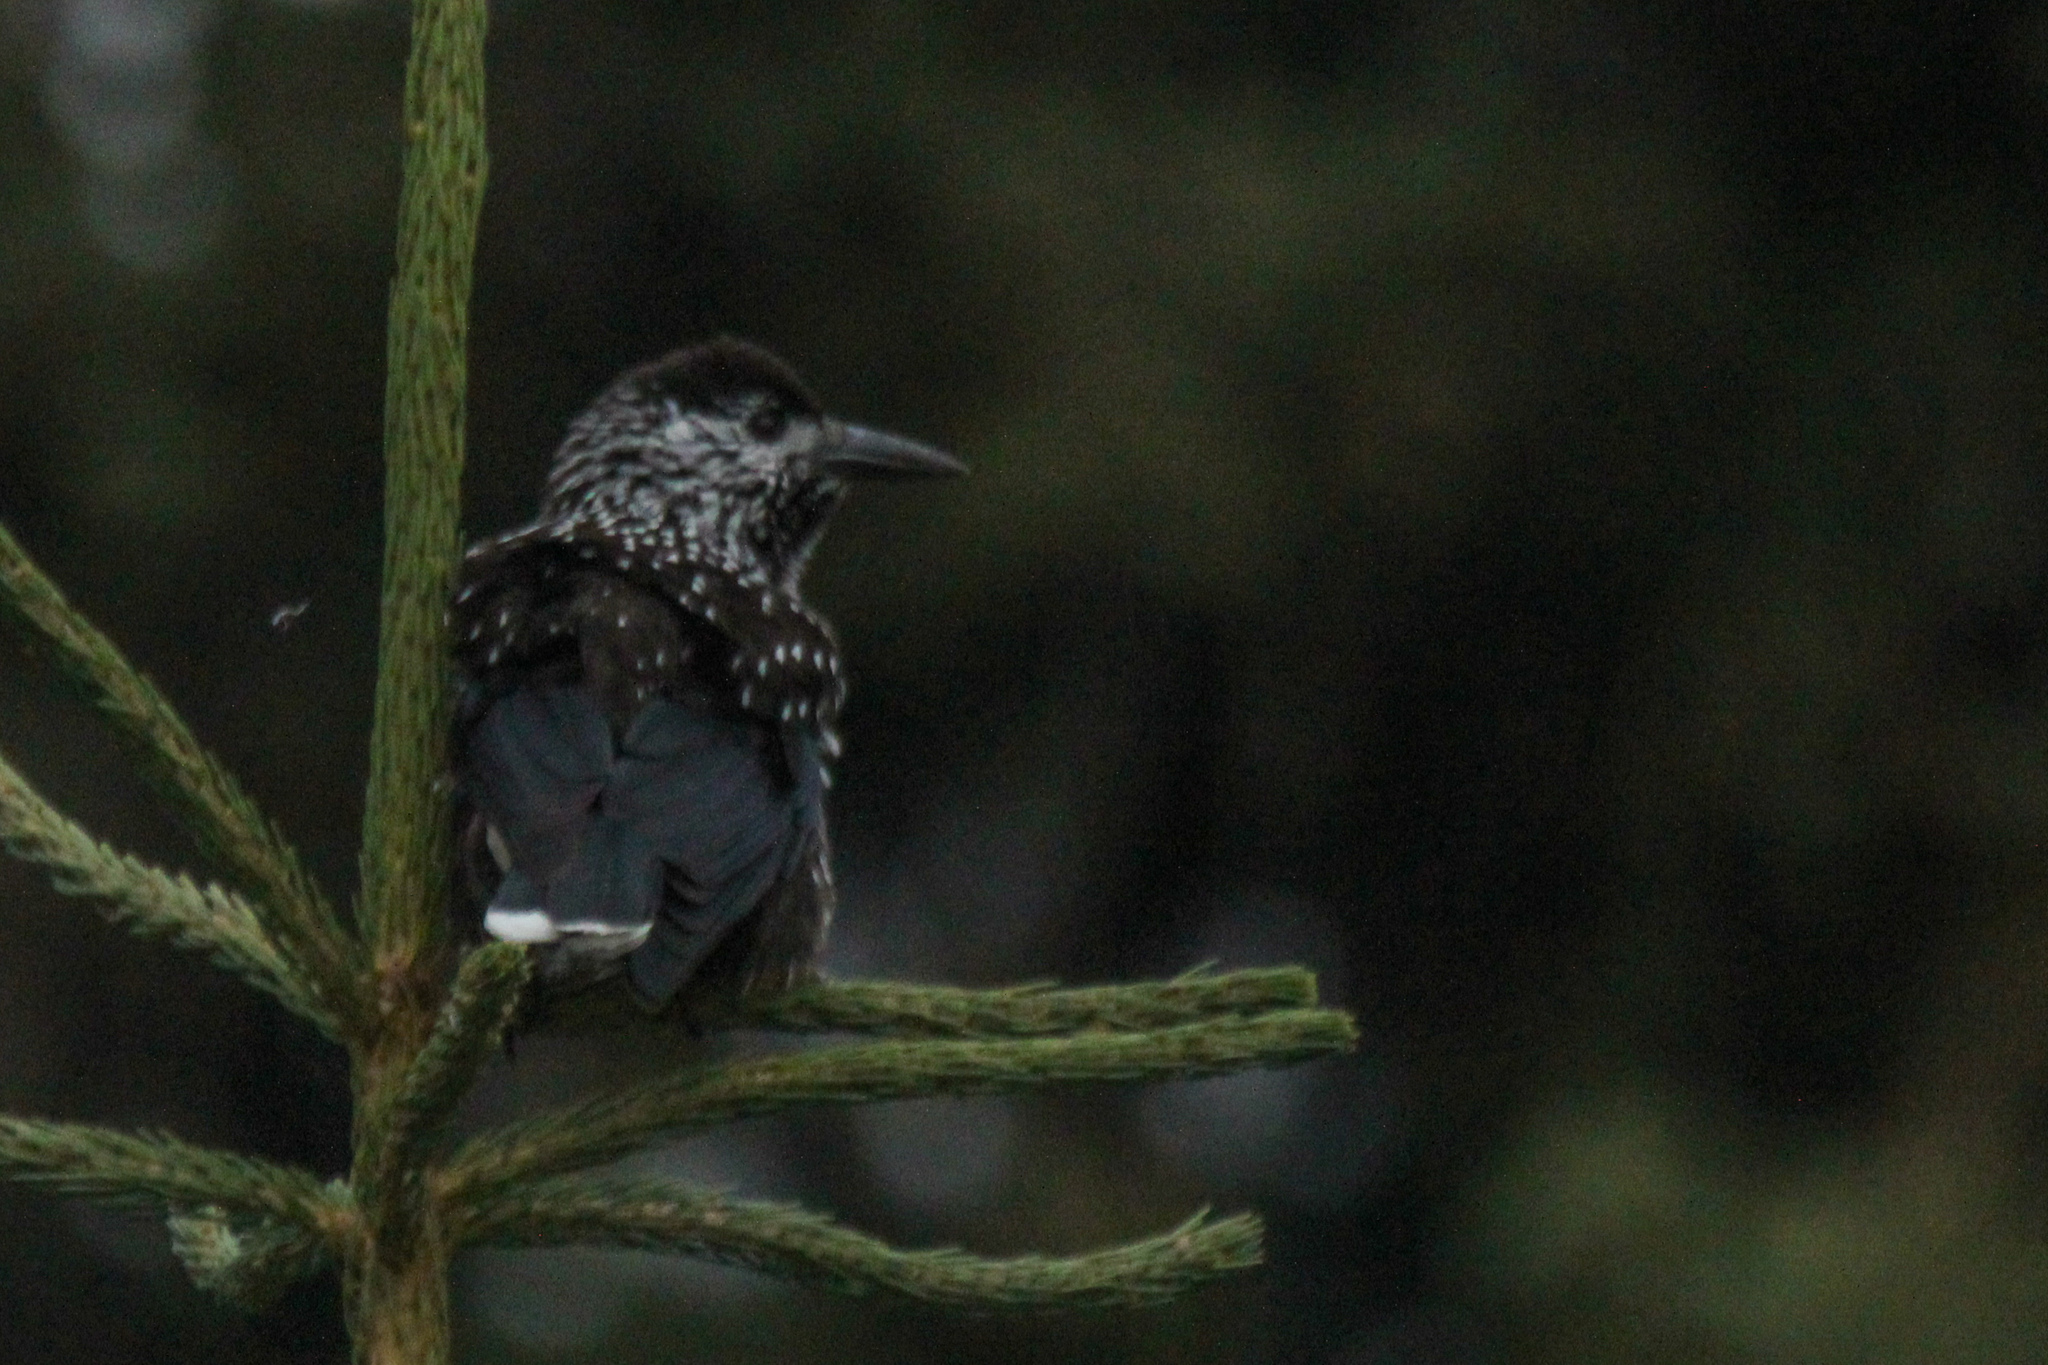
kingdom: Animalia
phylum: Chordata
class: Aves
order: Passeriformes
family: Corvidae
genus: Nucifraga
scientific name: Nucifraga caryocatactes
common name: Spotted nutcracker
